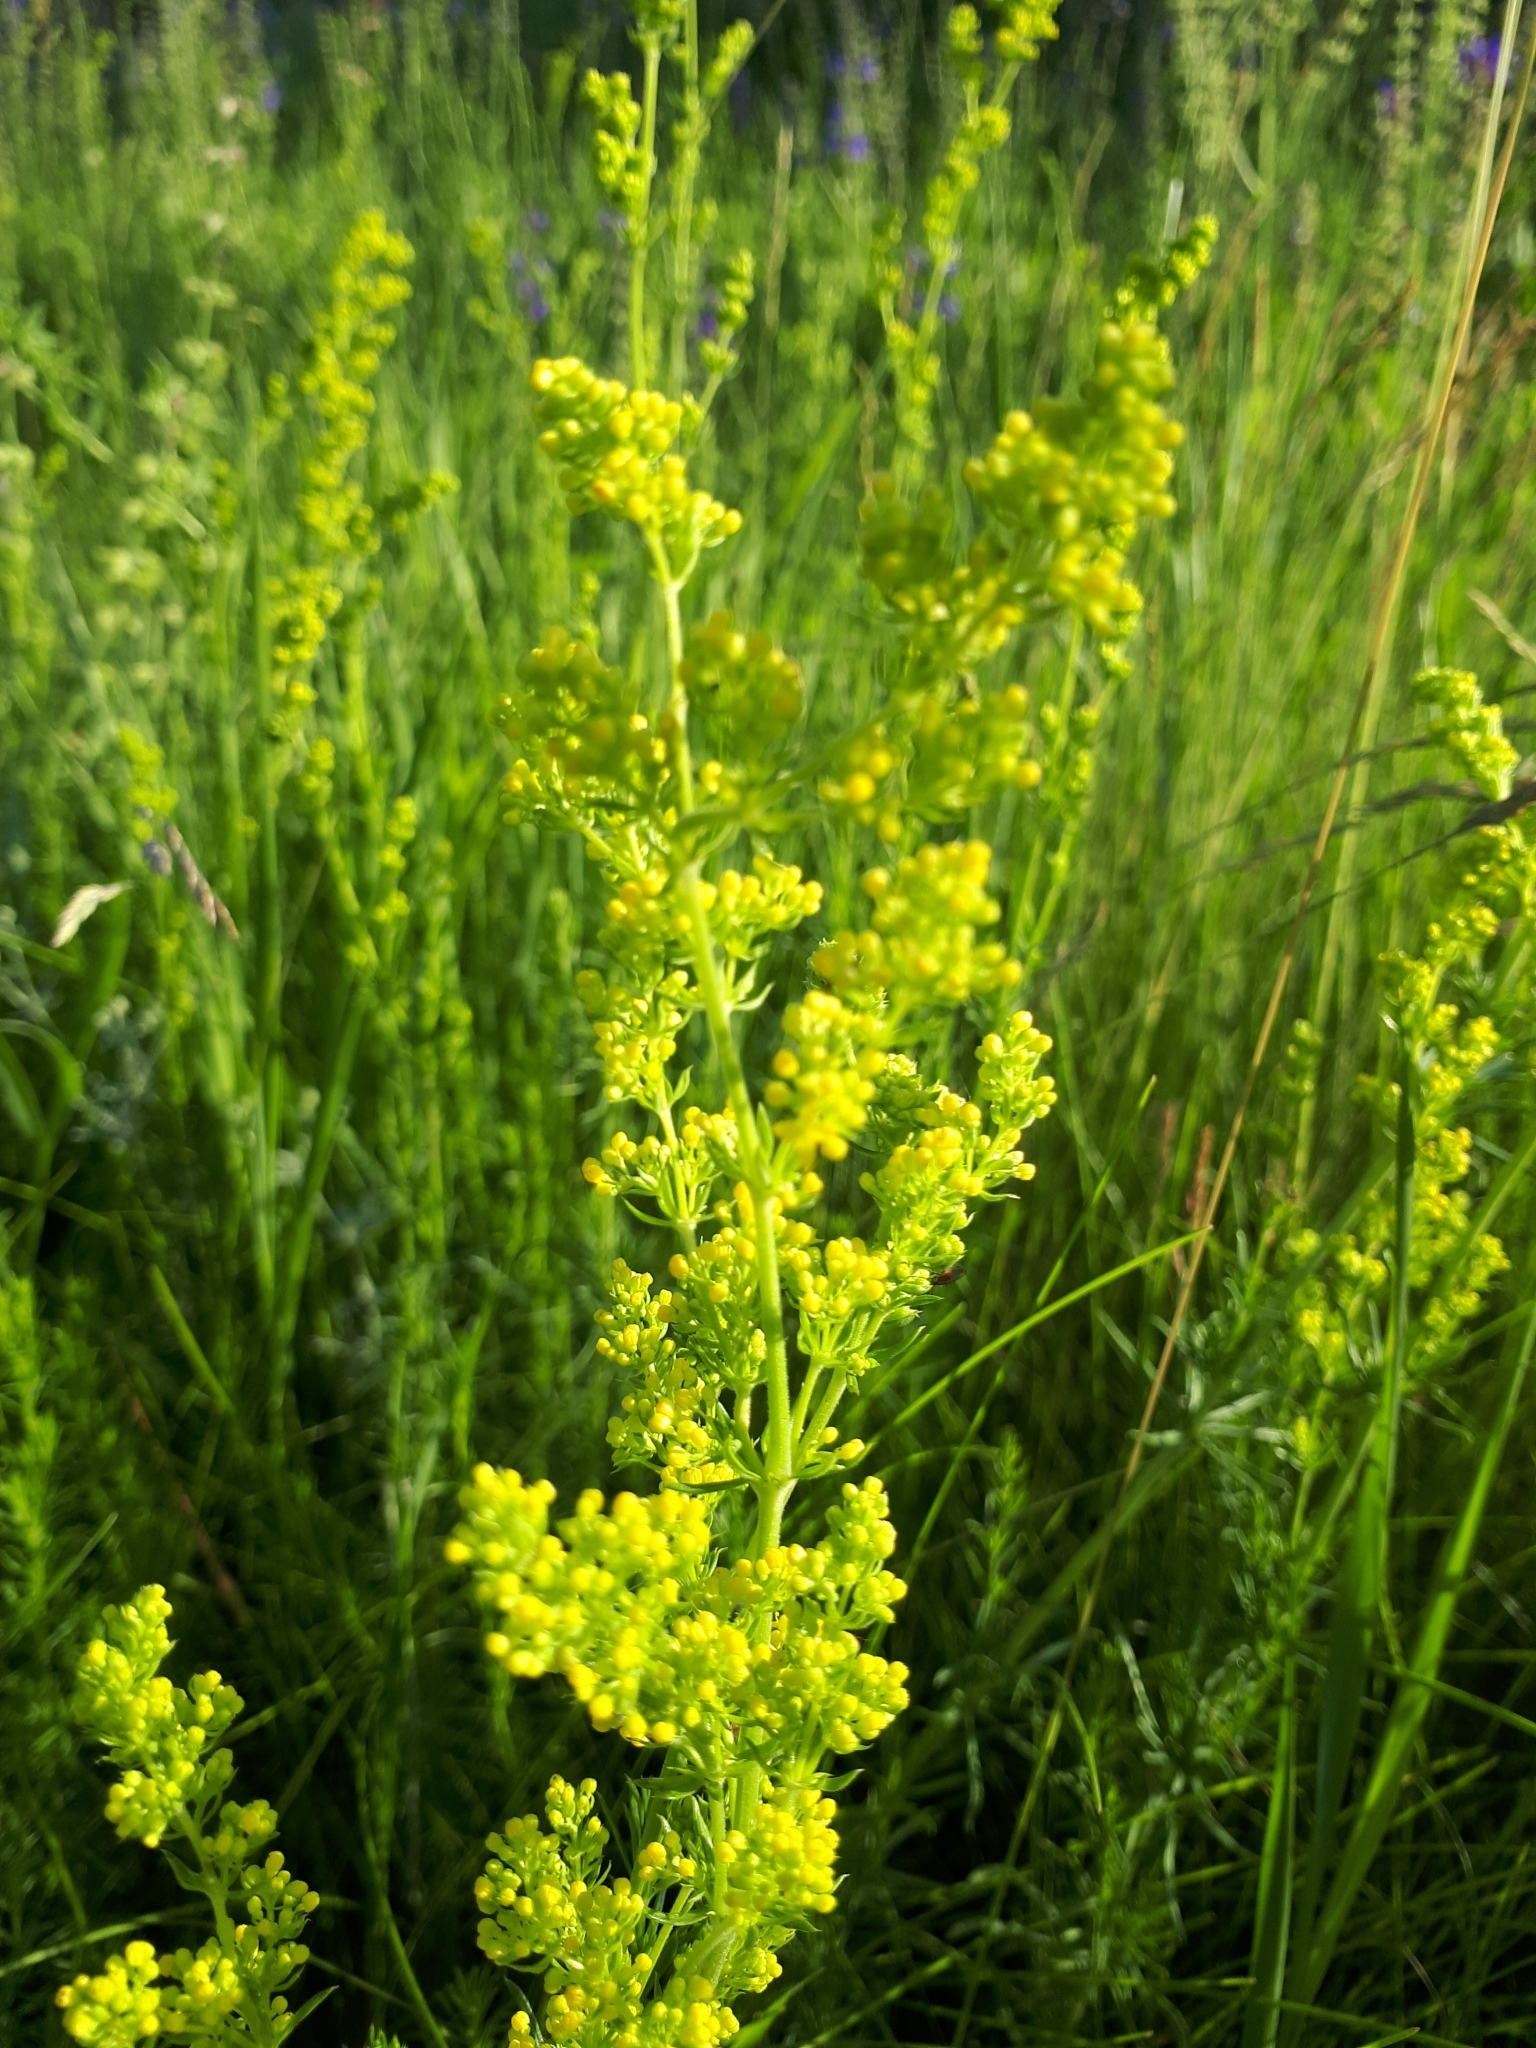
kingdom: Plantae
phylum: Tracheophyta
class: Magnoliopsida
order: Gentianales
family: Rubiaceae
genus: Galium
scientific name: Galium verum
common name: Lady's bedstraw
